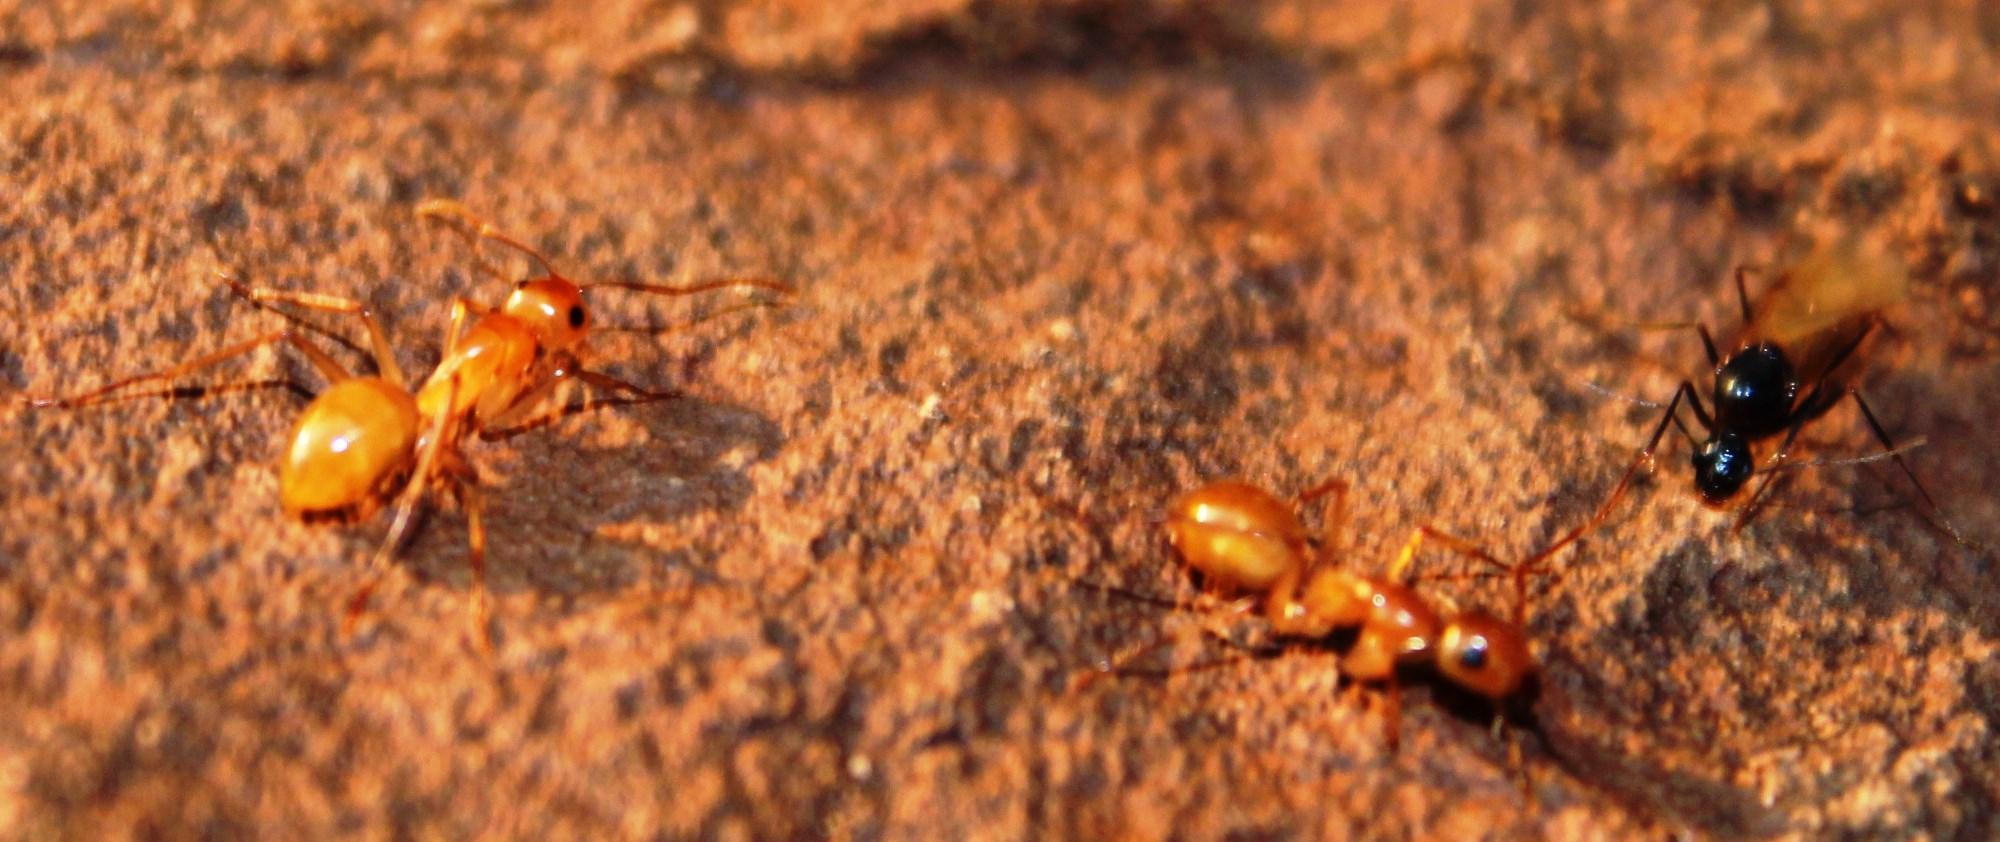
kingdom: Animalia
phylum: Arthropoda
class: Insecta
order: Hymenoptera
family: Formicidae
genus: Camponotus
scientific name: Camponotus cuneiscapus
